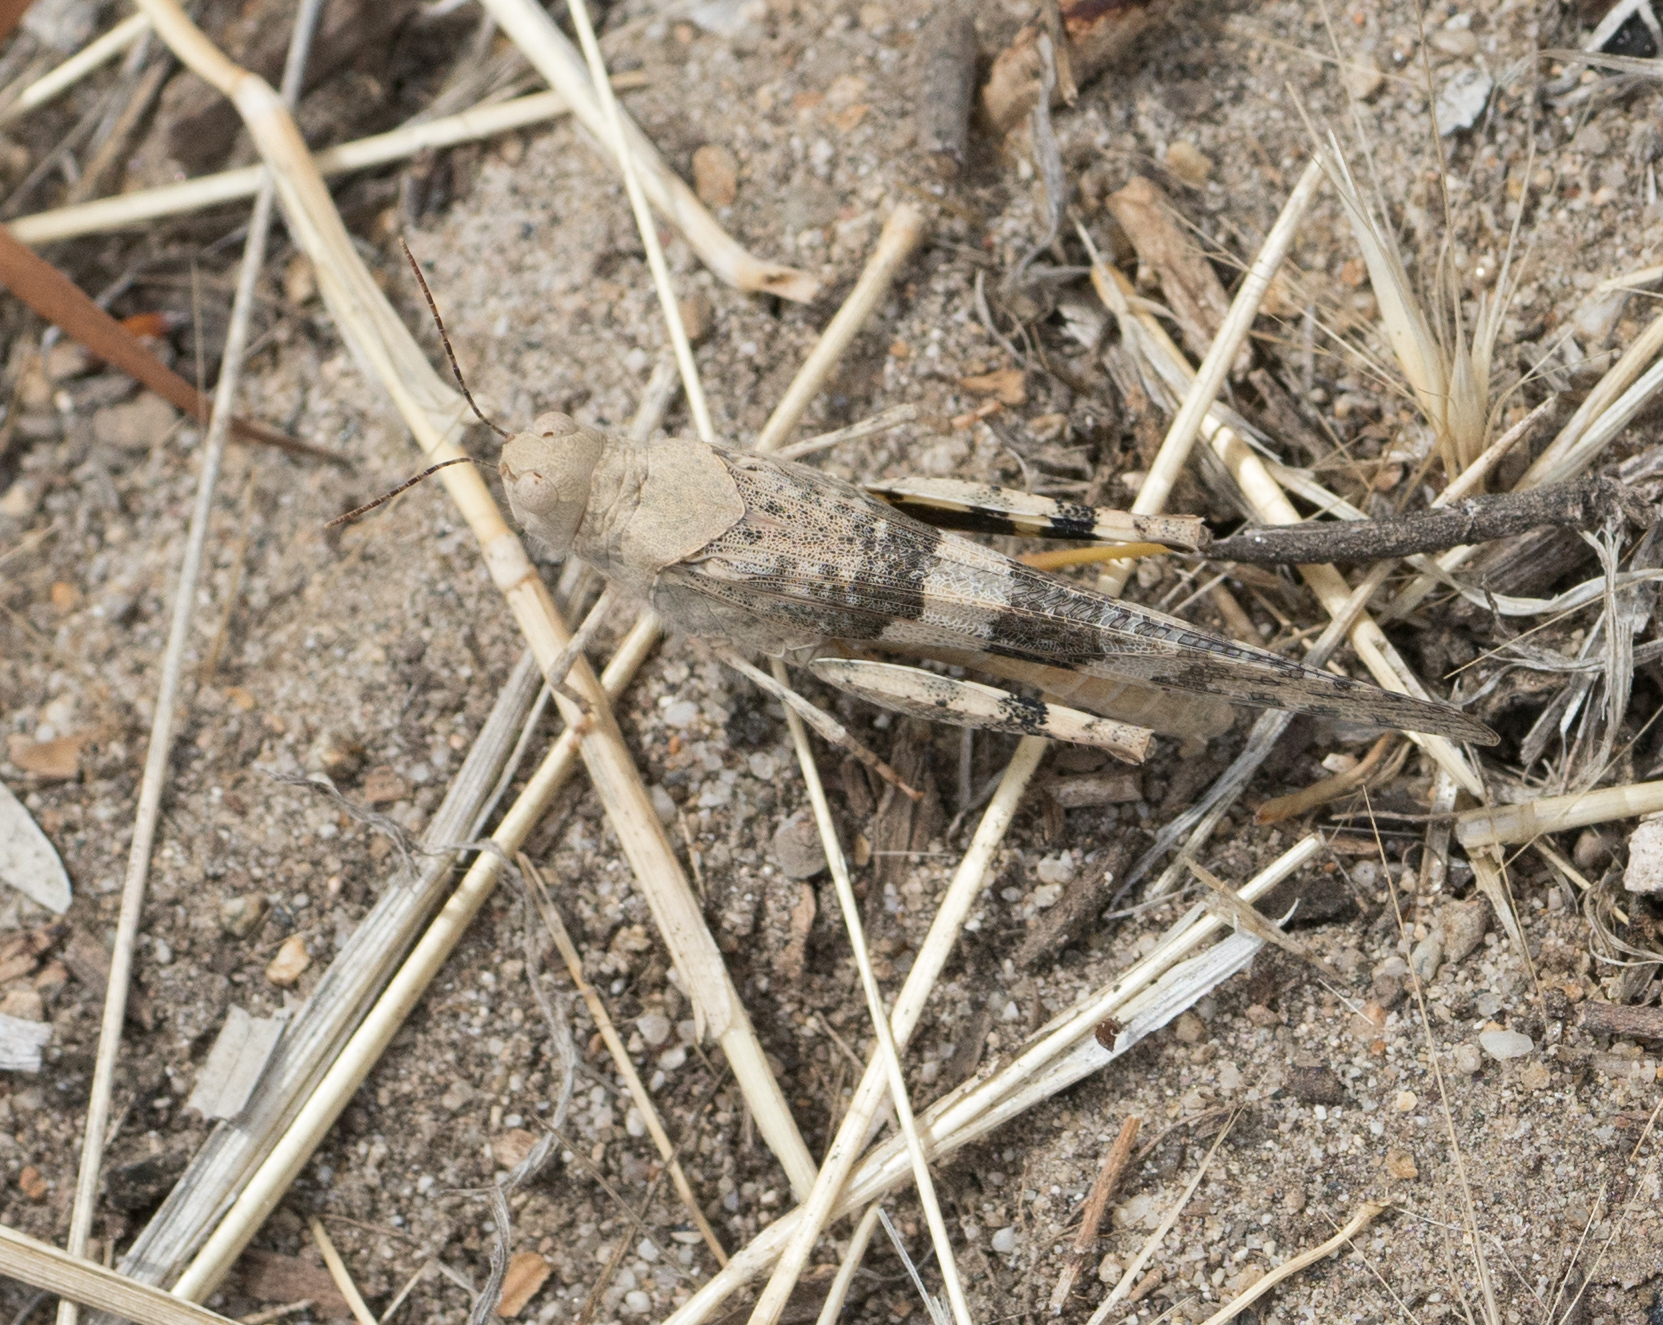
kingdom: Animalia
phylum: Arthropoda
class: Insecta
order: Orthoptera
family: Acrididae
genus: Trimerotropis
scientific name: Trimerotropis pallidipennis
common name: Pallid-winged grasshopper
